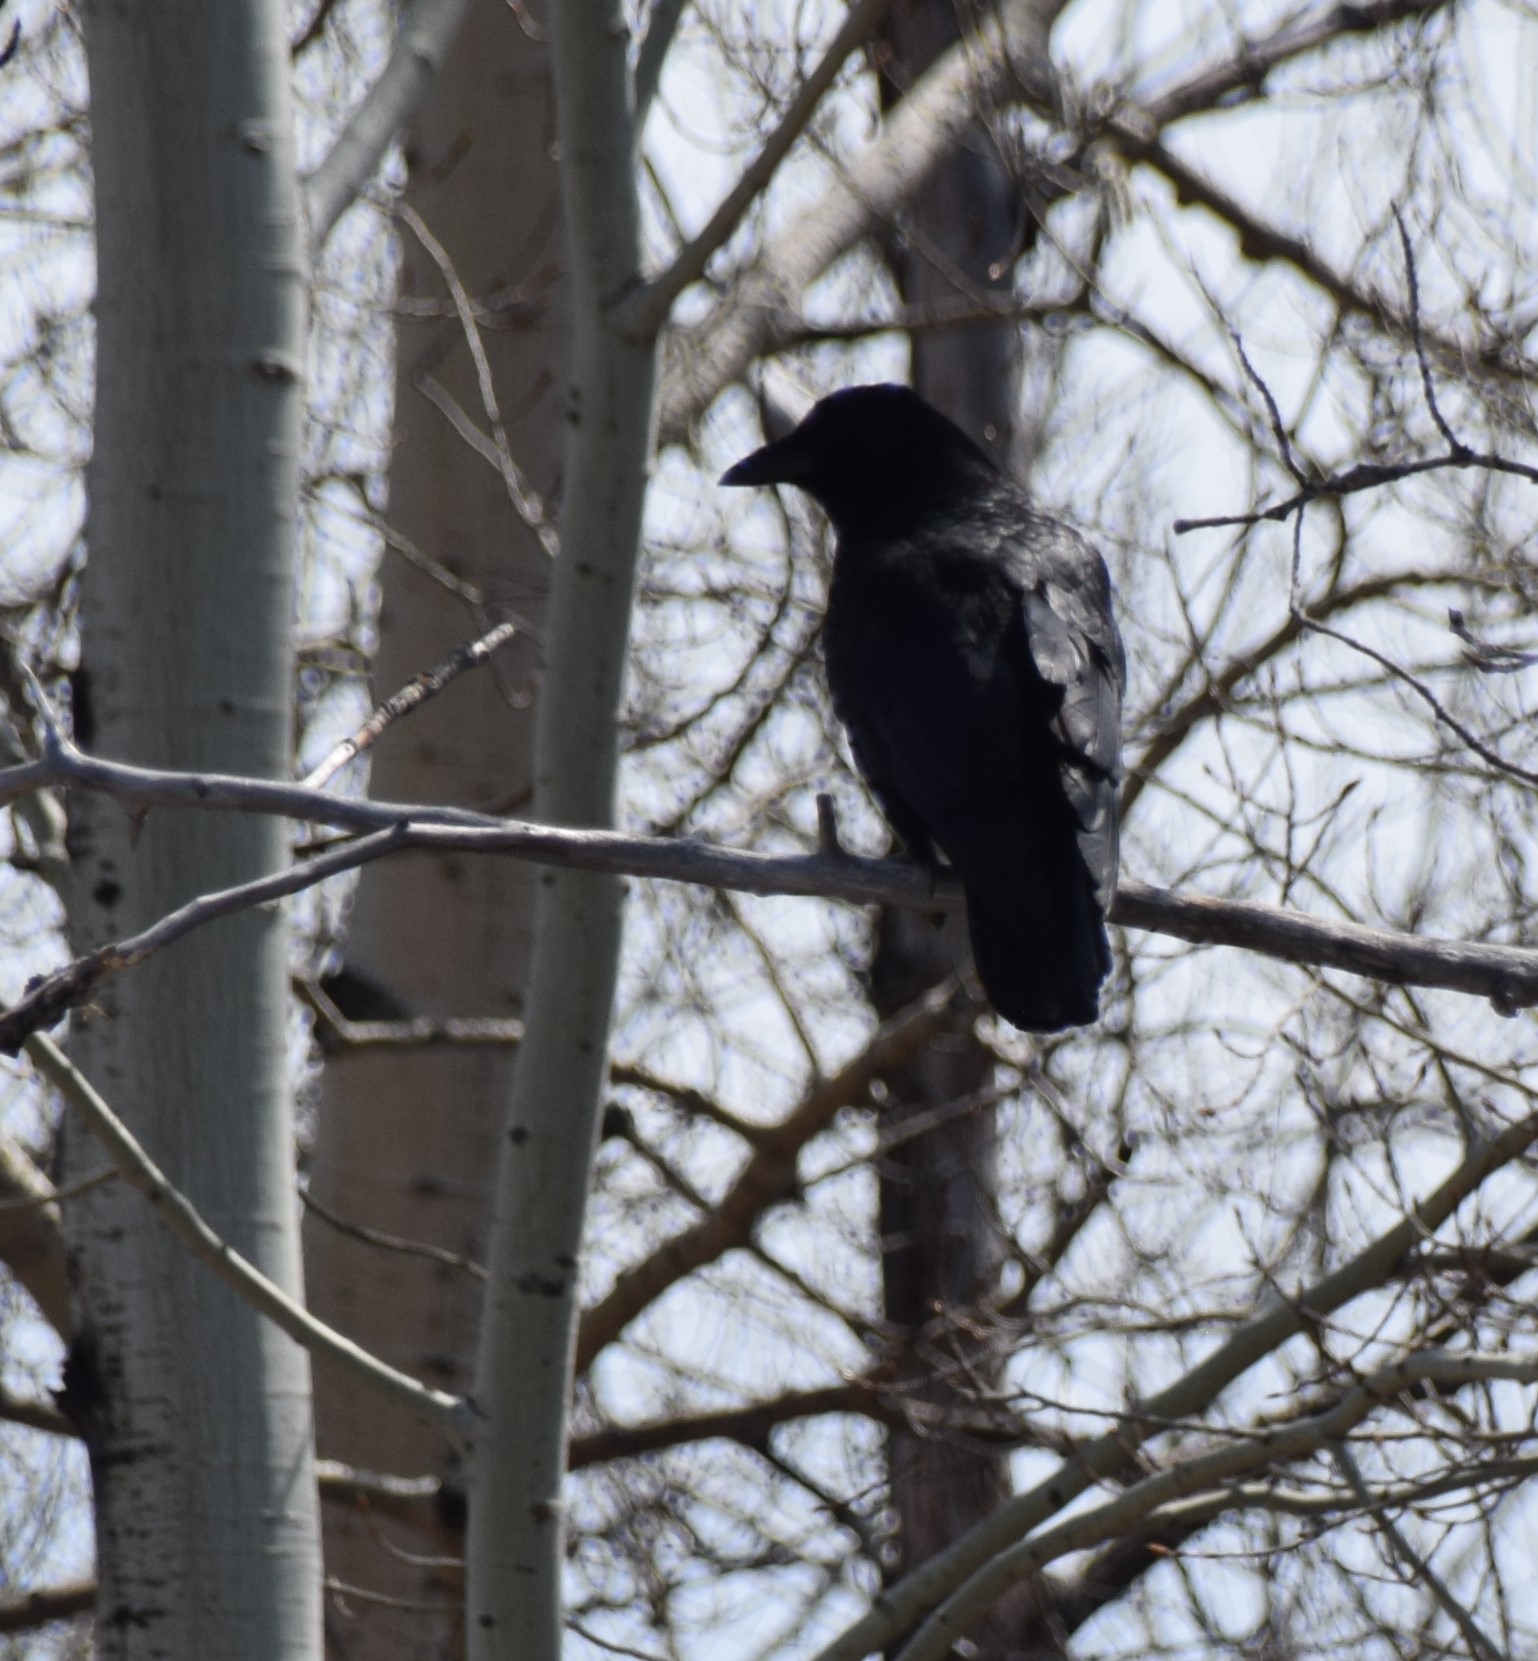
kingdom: Animalia
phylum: Chordata
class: Aves
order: Passeriformes
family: Corvidae
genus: Corvus
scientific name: Corvus brachyrhynchos
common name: American crow
